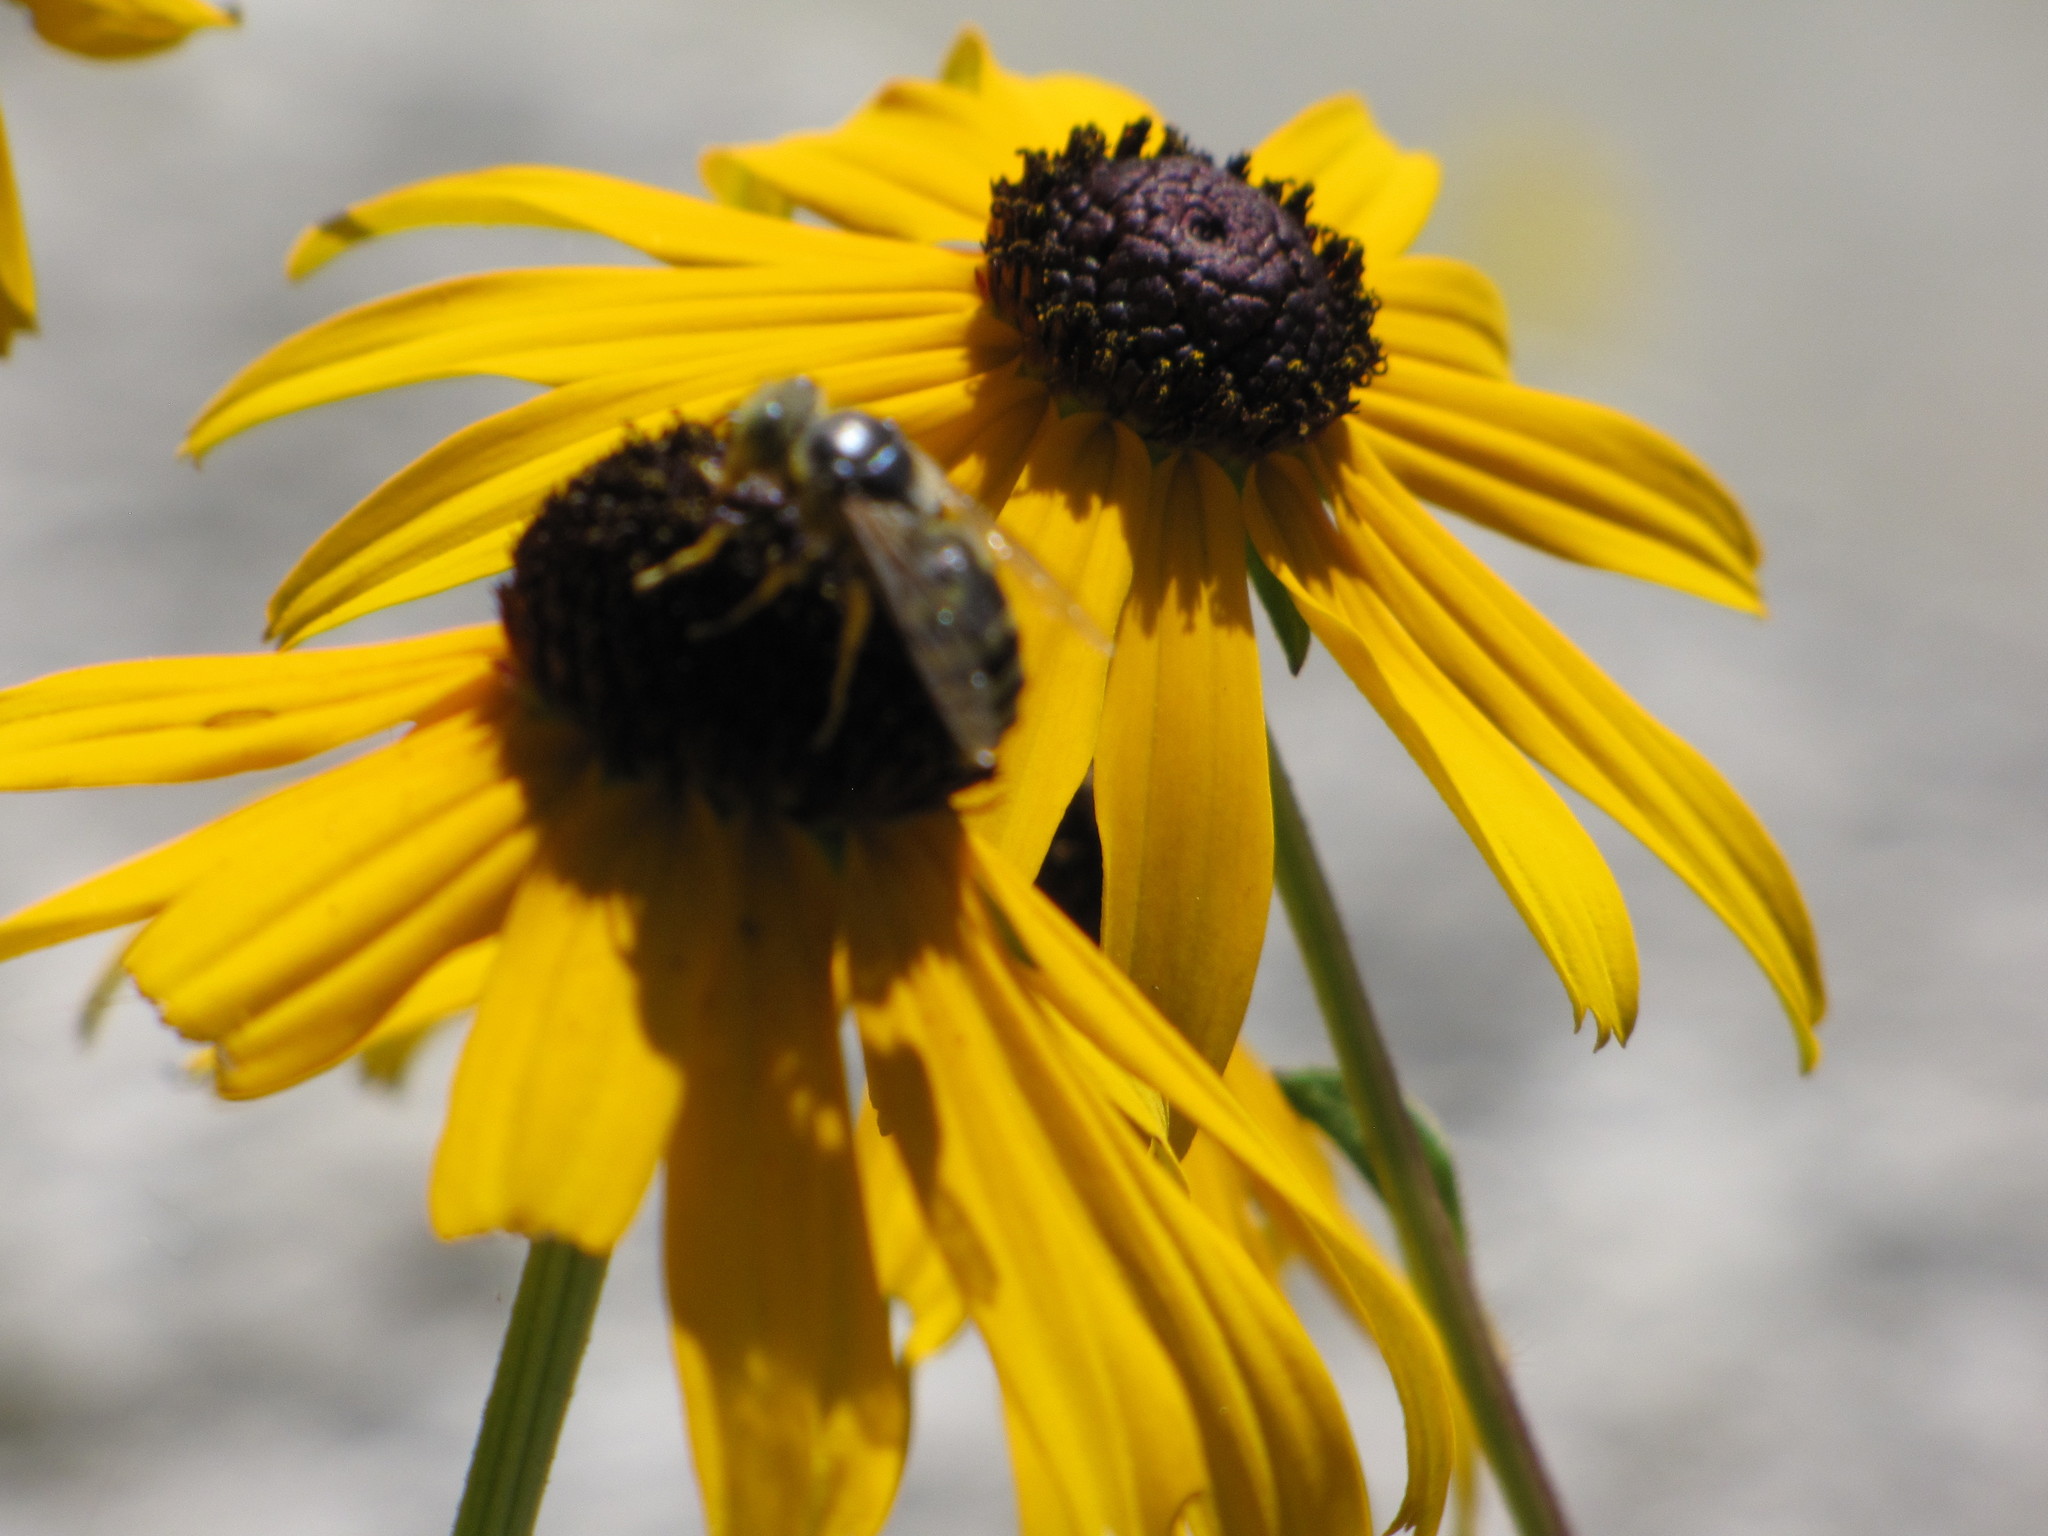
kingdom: Animalia
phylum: Arthropoda
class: Insecta
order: Hymenoptera
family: Crabronidae
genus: Bembix
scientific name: Bembix americana
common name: American sand wasp
